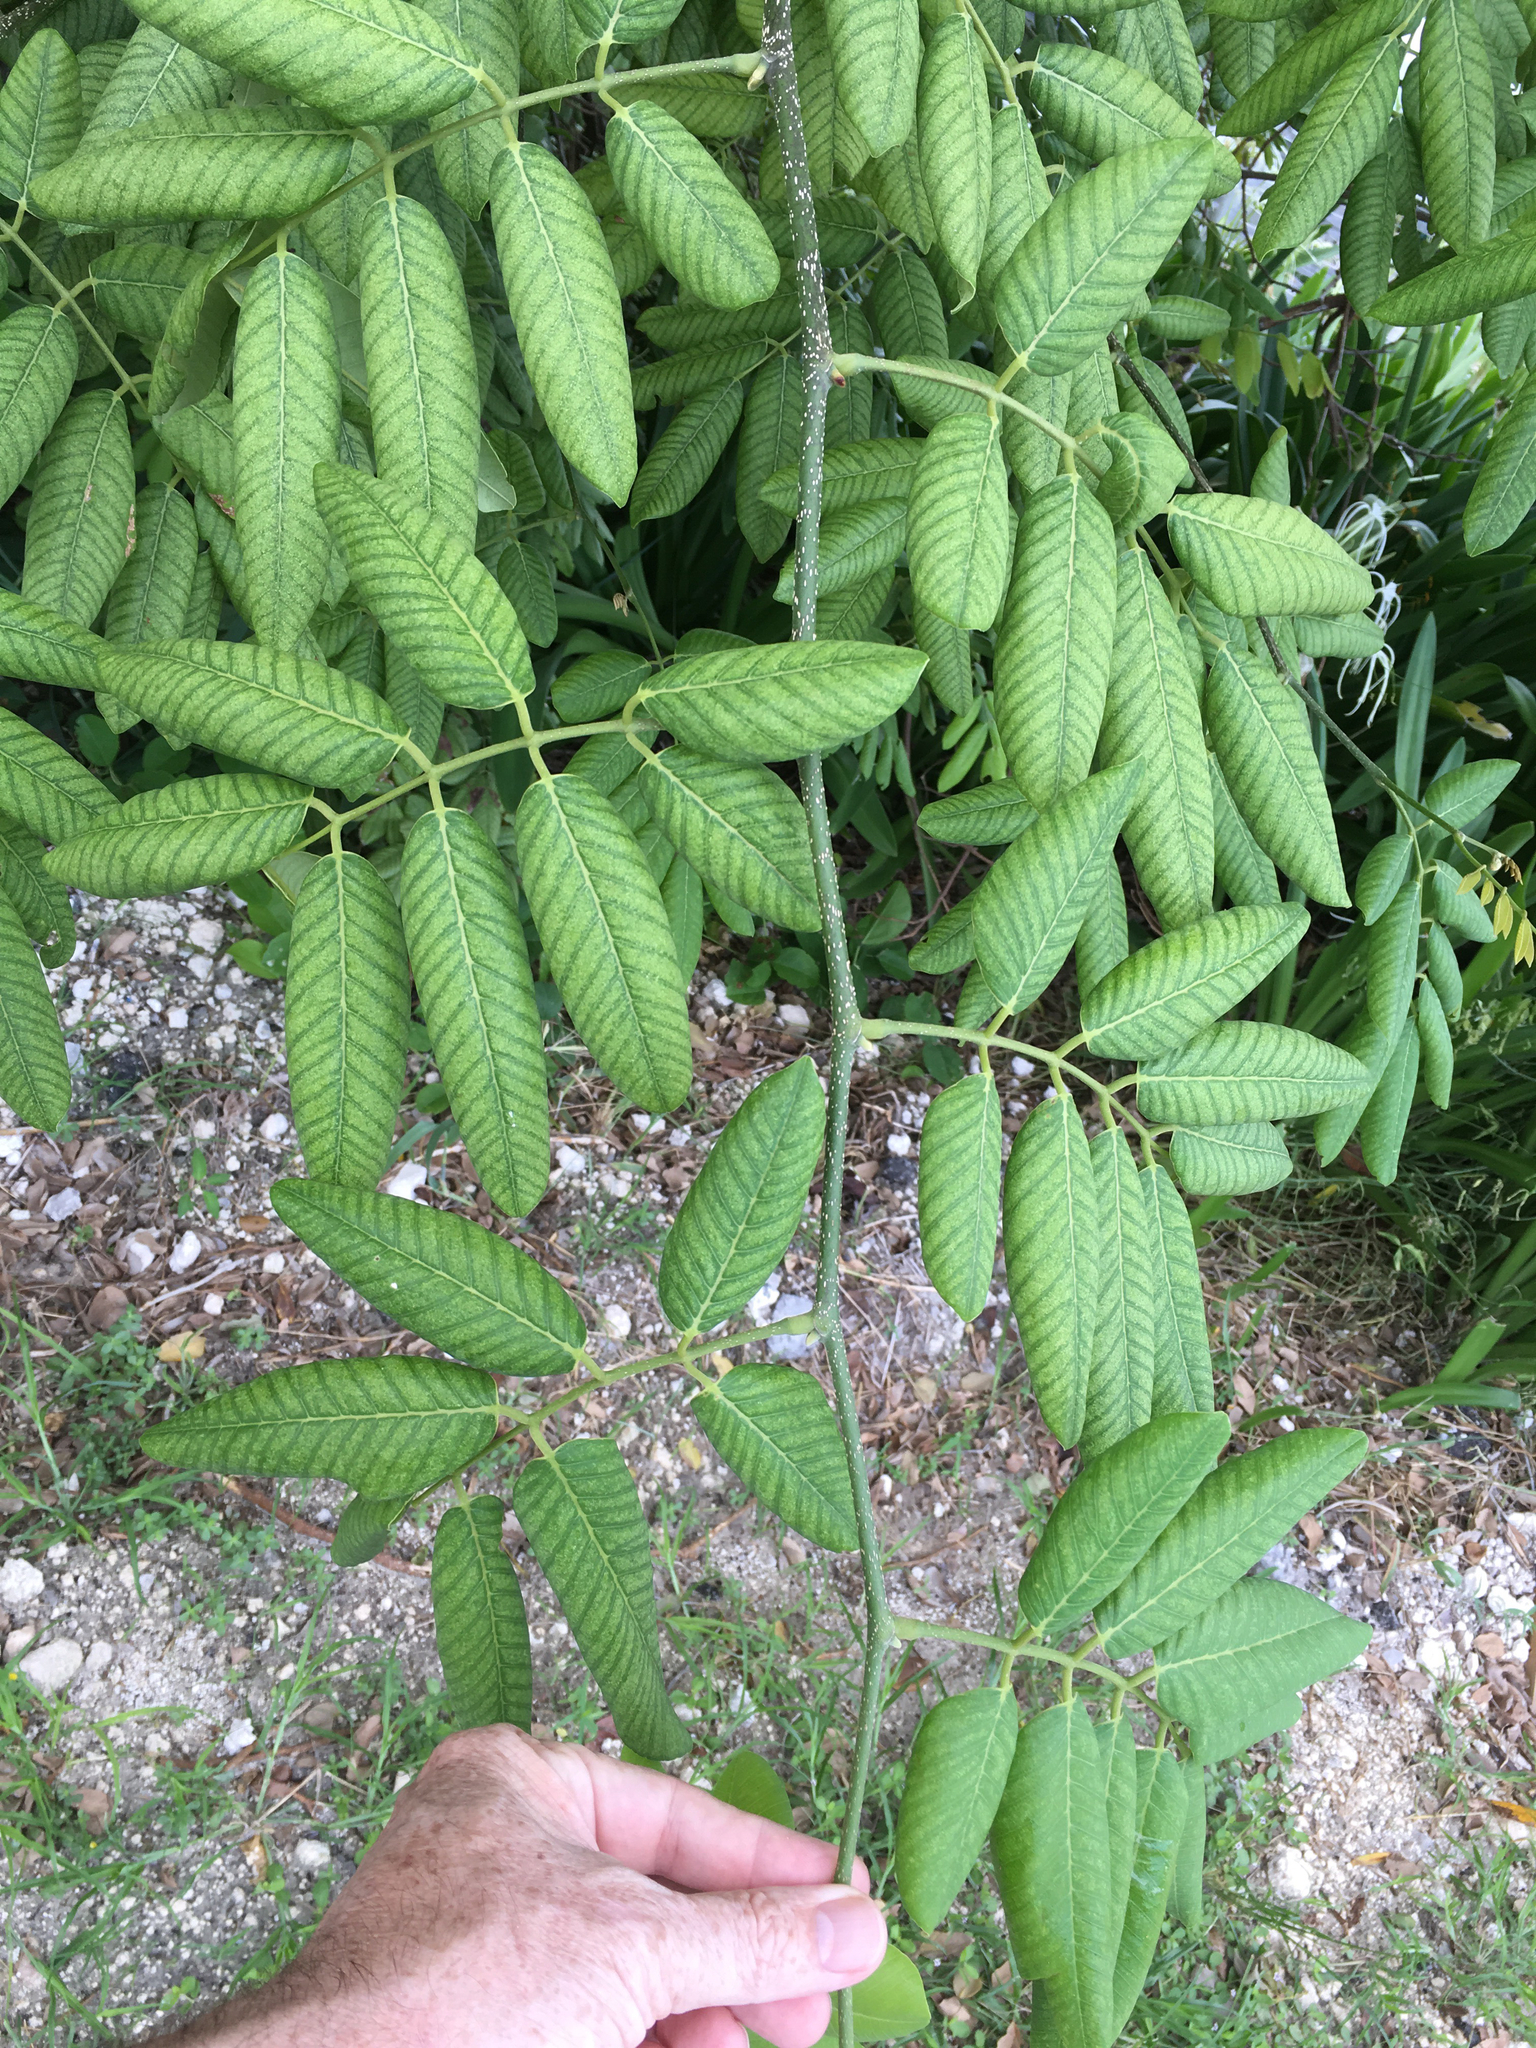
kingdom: Plantae
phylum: Tracheophyta
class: Magnoliopsida
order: Fabales
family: Fabaceae
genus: Piscidia
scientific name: Piscidia piscipula
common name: Florida fishpoison tree
